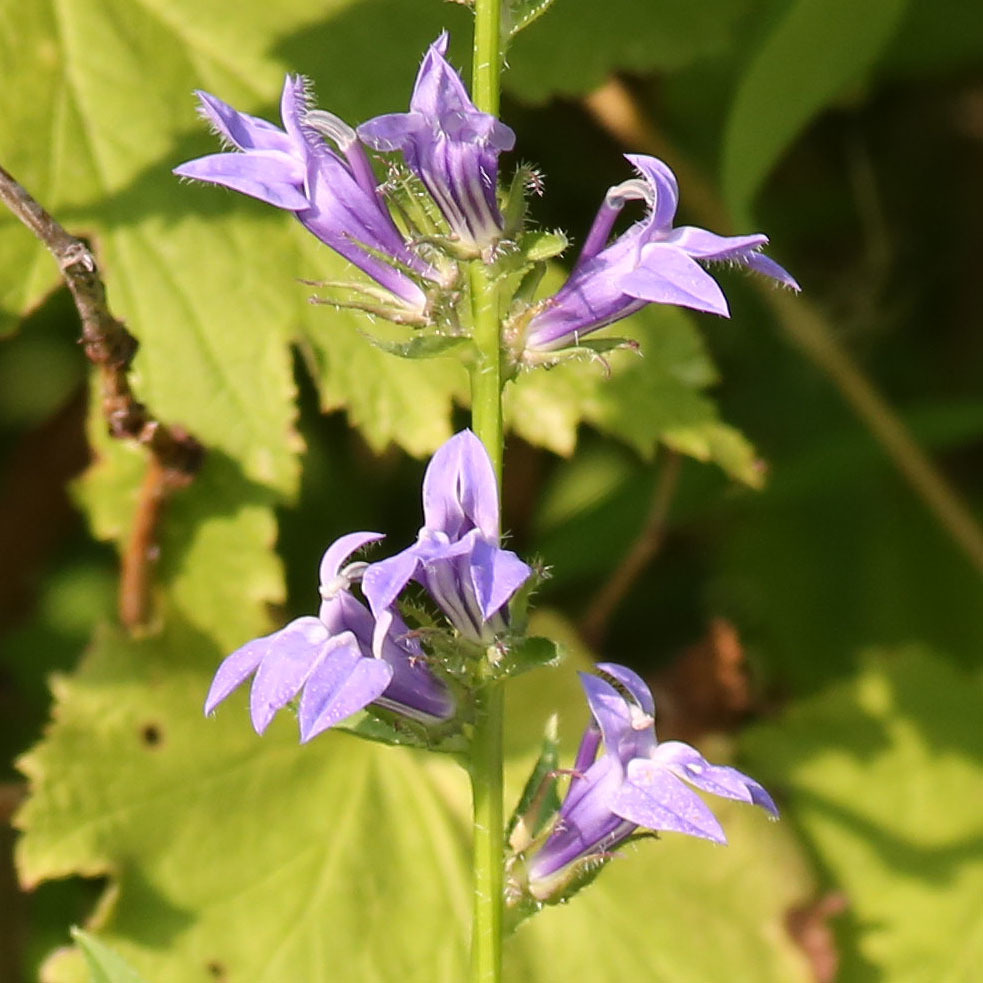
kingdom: Plantae
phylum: Tracheophyta
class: Magnoliopsida
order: Asterales
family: Campanulaceae
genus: Lobelia
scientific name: Lobelia siphilitica
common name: Great lobelia
